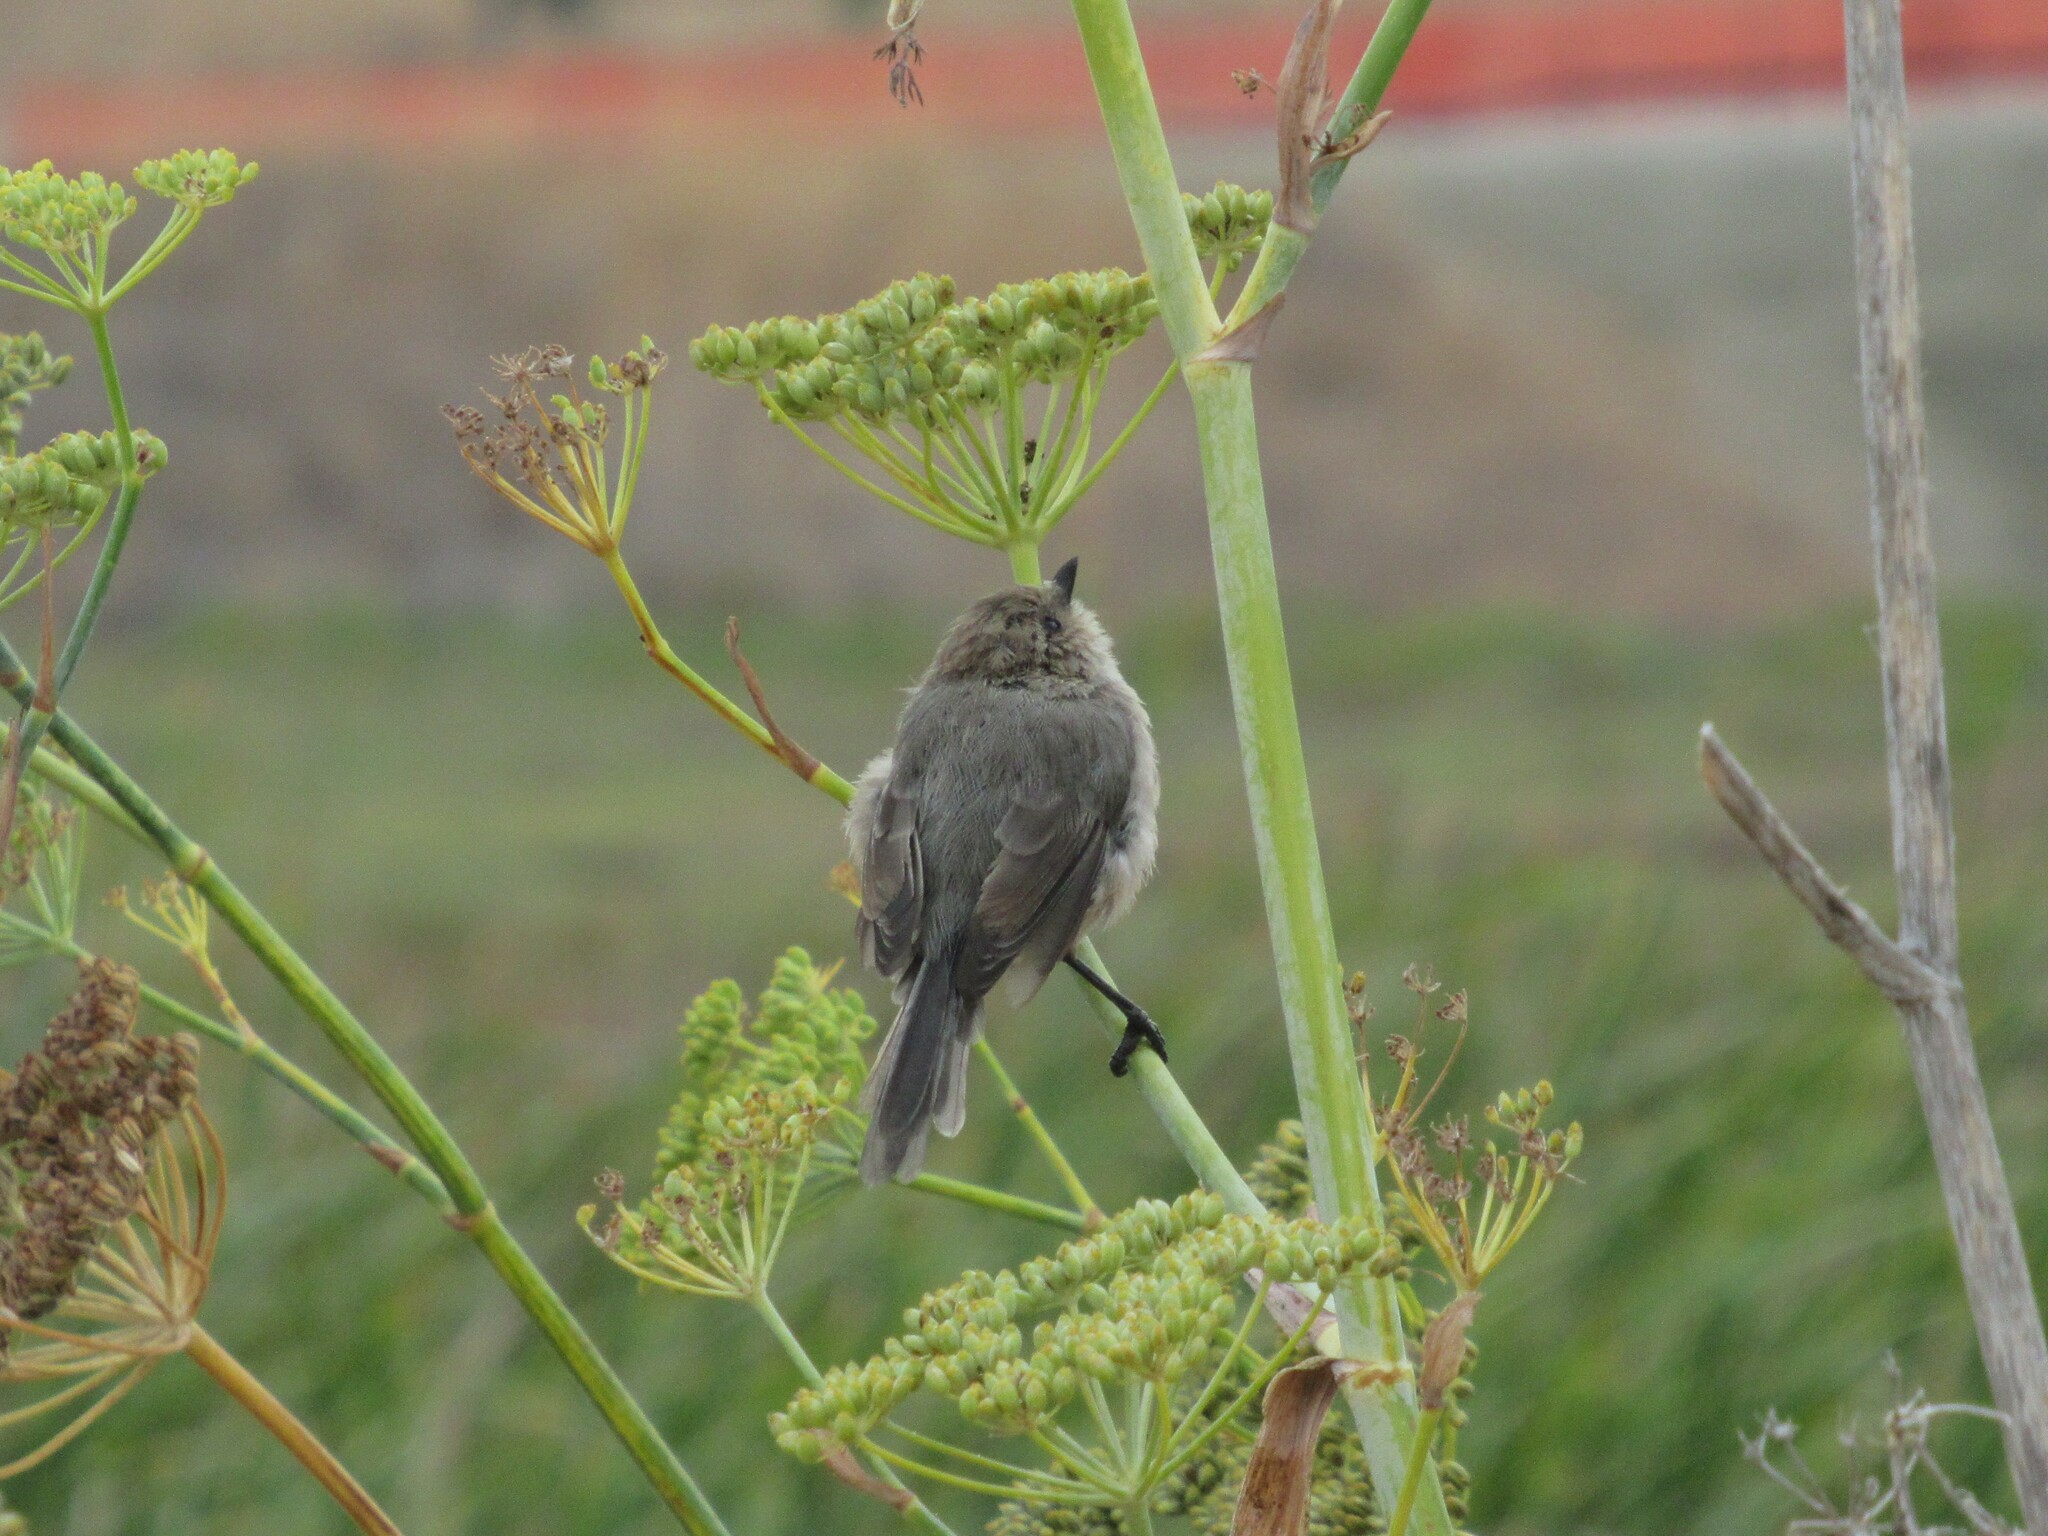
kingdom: Animalia
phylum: Chordata
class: Aves
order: Passeriformes
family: Aegithalidae
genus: Psaltriparus
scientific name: Psaltriparus minimus
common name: American bushtit
